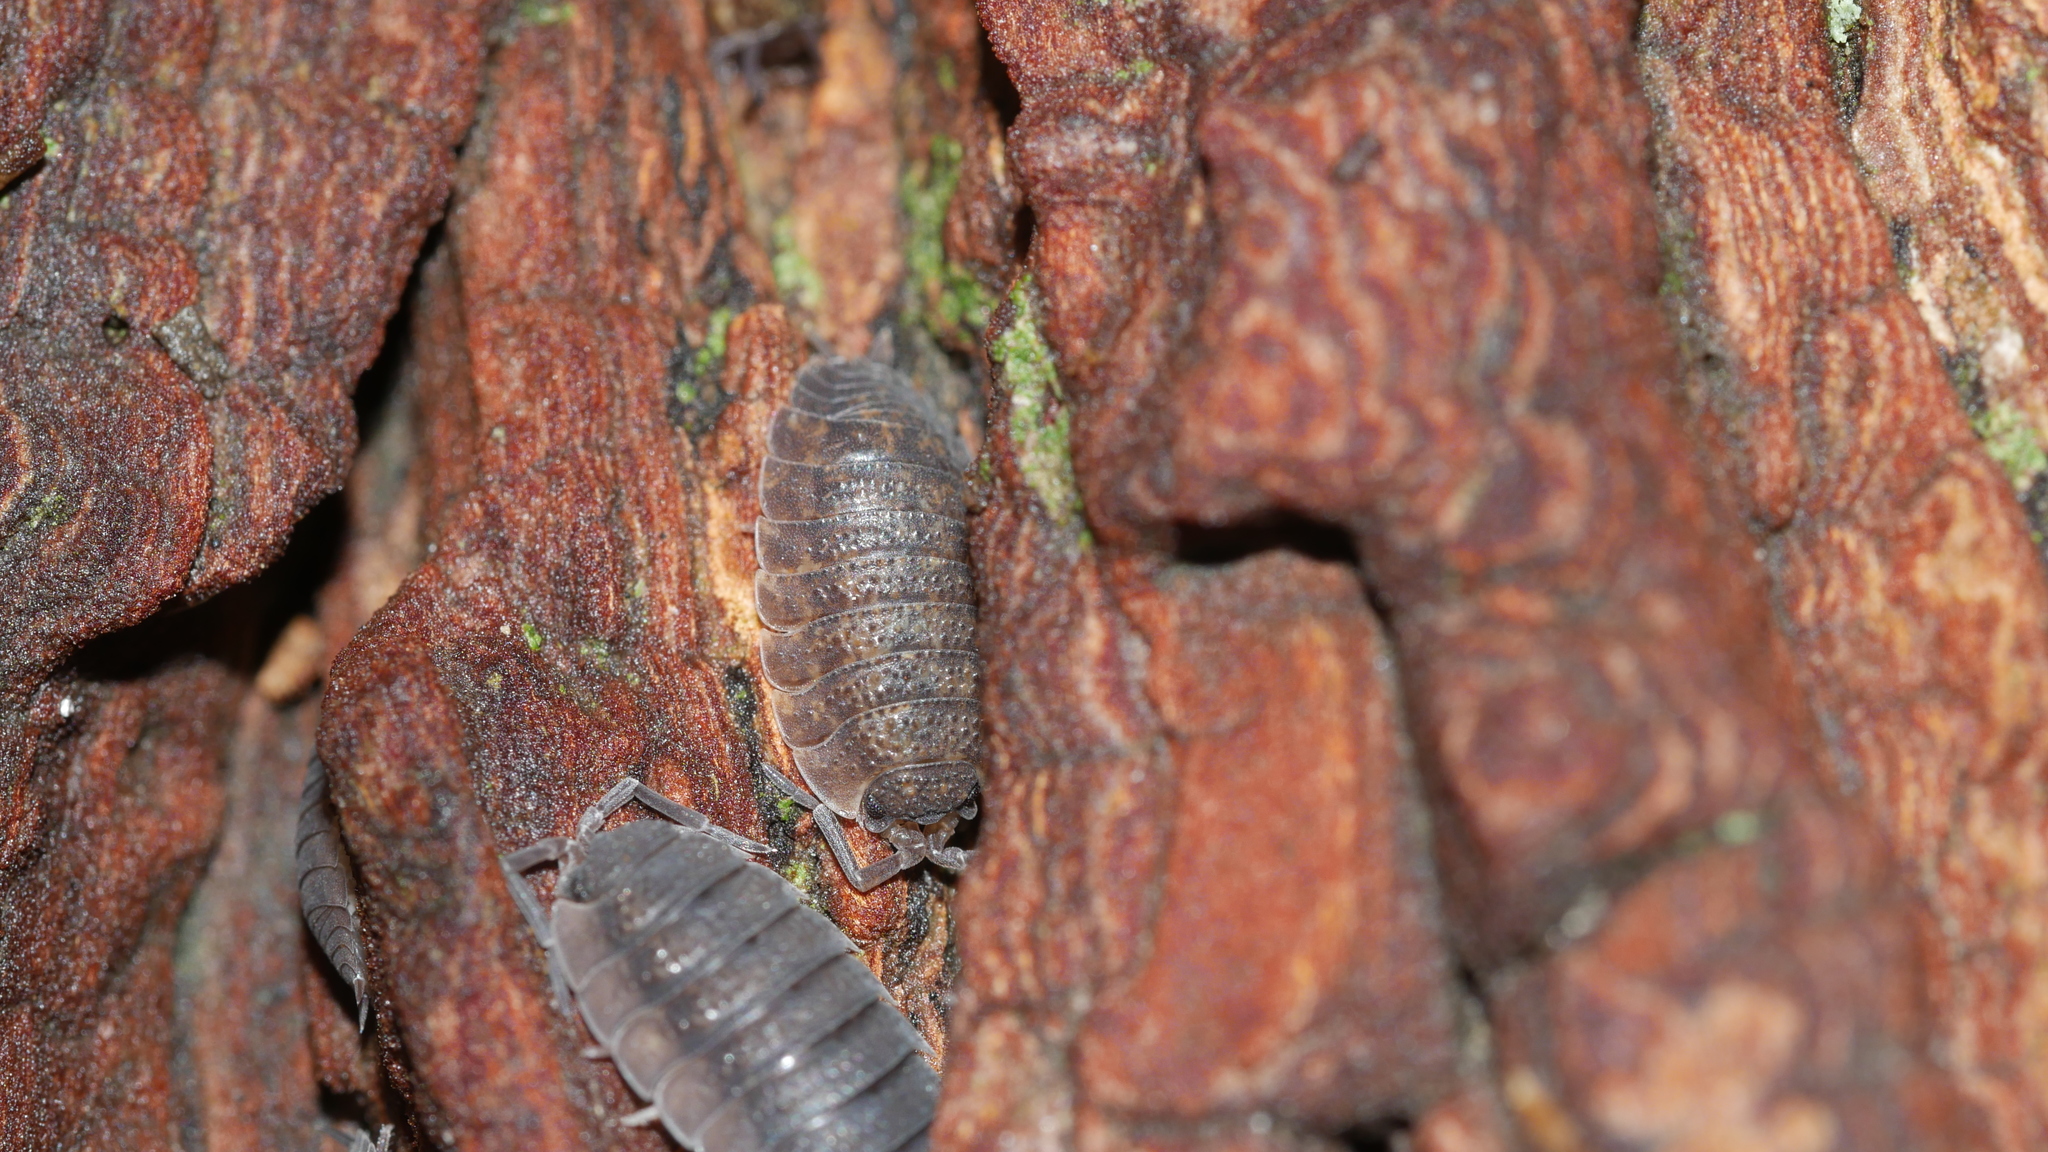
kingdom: Animalia
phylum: Arthropoda
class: Malacostraca
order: Isopoda
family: Porcellionidae
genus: Porcellio
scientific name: Porcellio scaber
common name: Common rough woodlouse
